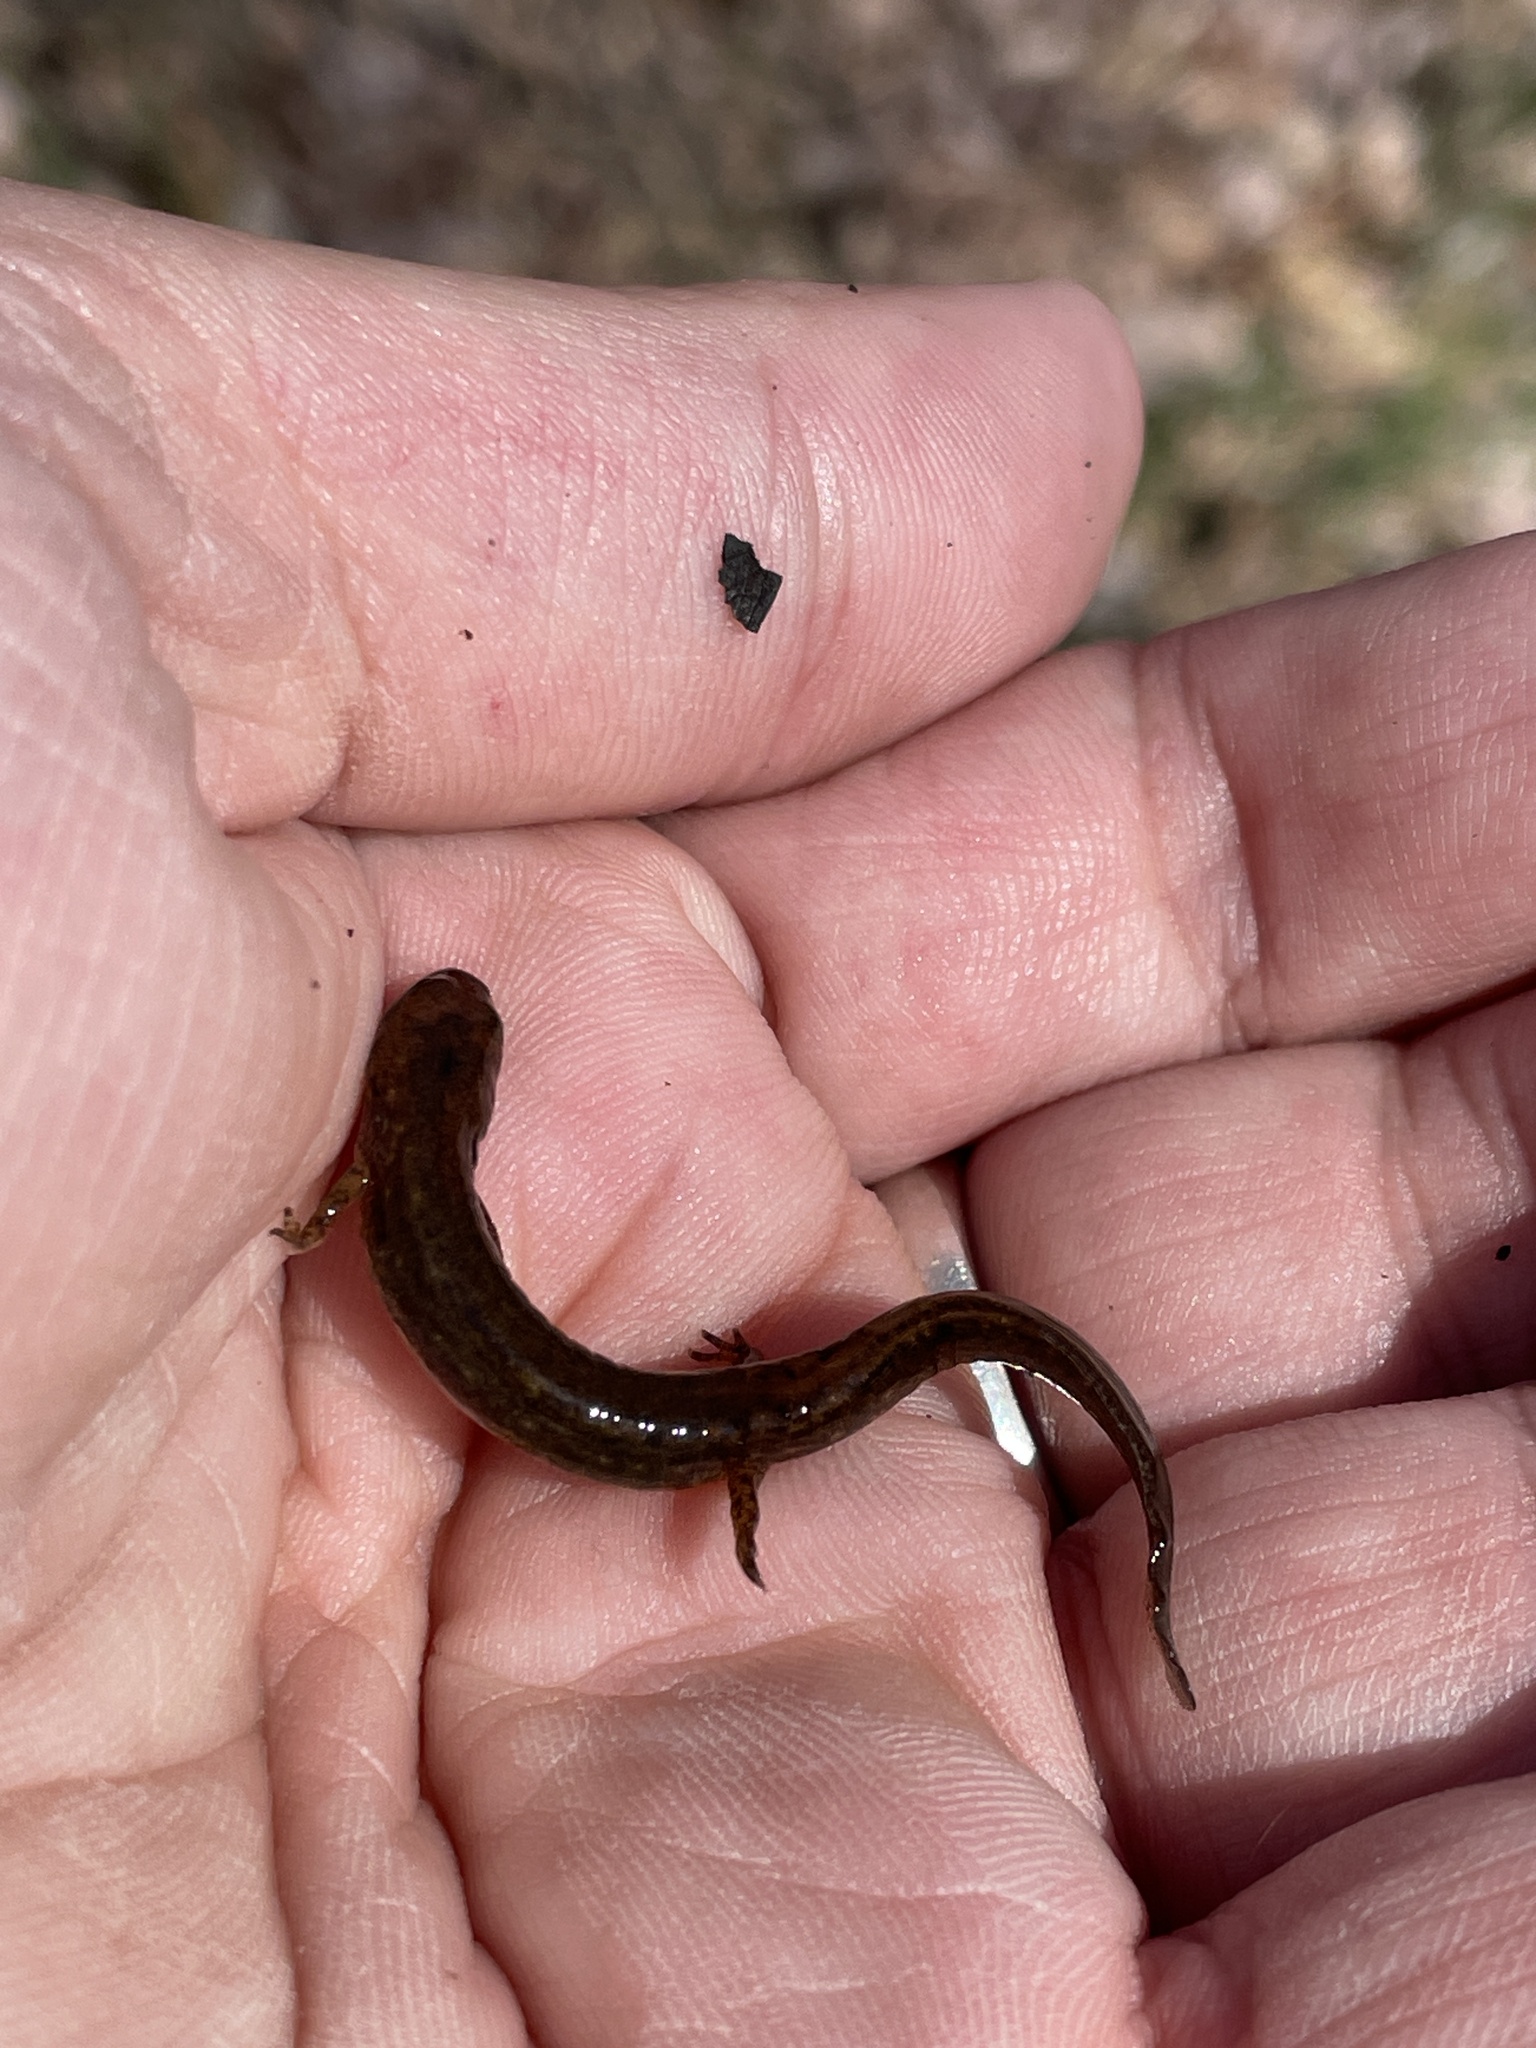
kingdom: Animalia
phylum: Chordata
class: Amphibia
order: Caudata
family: Plethodontidae
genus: Eurycea
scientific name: Eurycea bislineata
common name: Northern two-lined salamander
